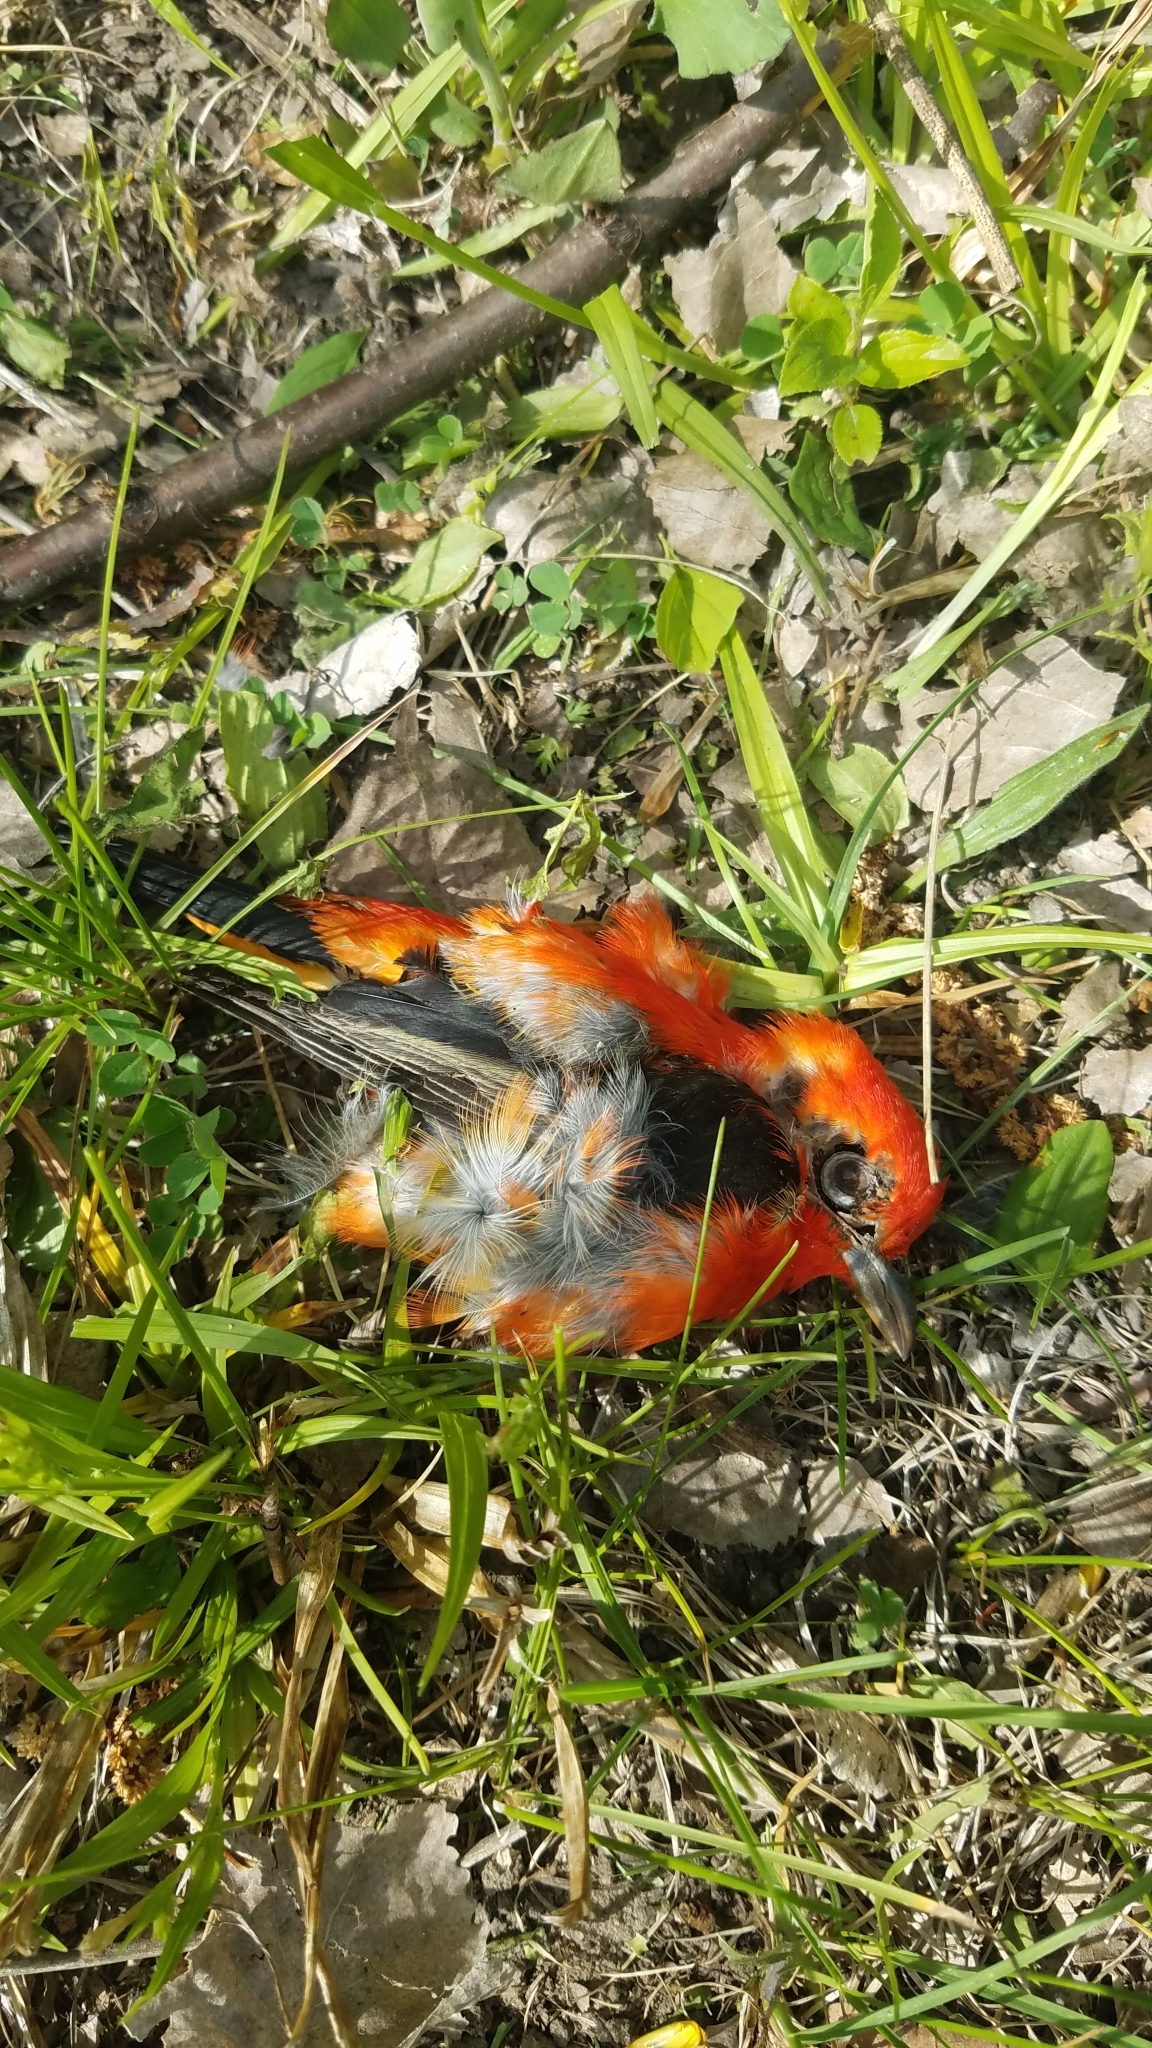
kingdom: Animalia
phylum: Chordata
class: Aves
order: Passeriformes
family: Cardinalidae
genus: Piranga
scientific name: Piranga olivacea
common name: Scarlet tanager
